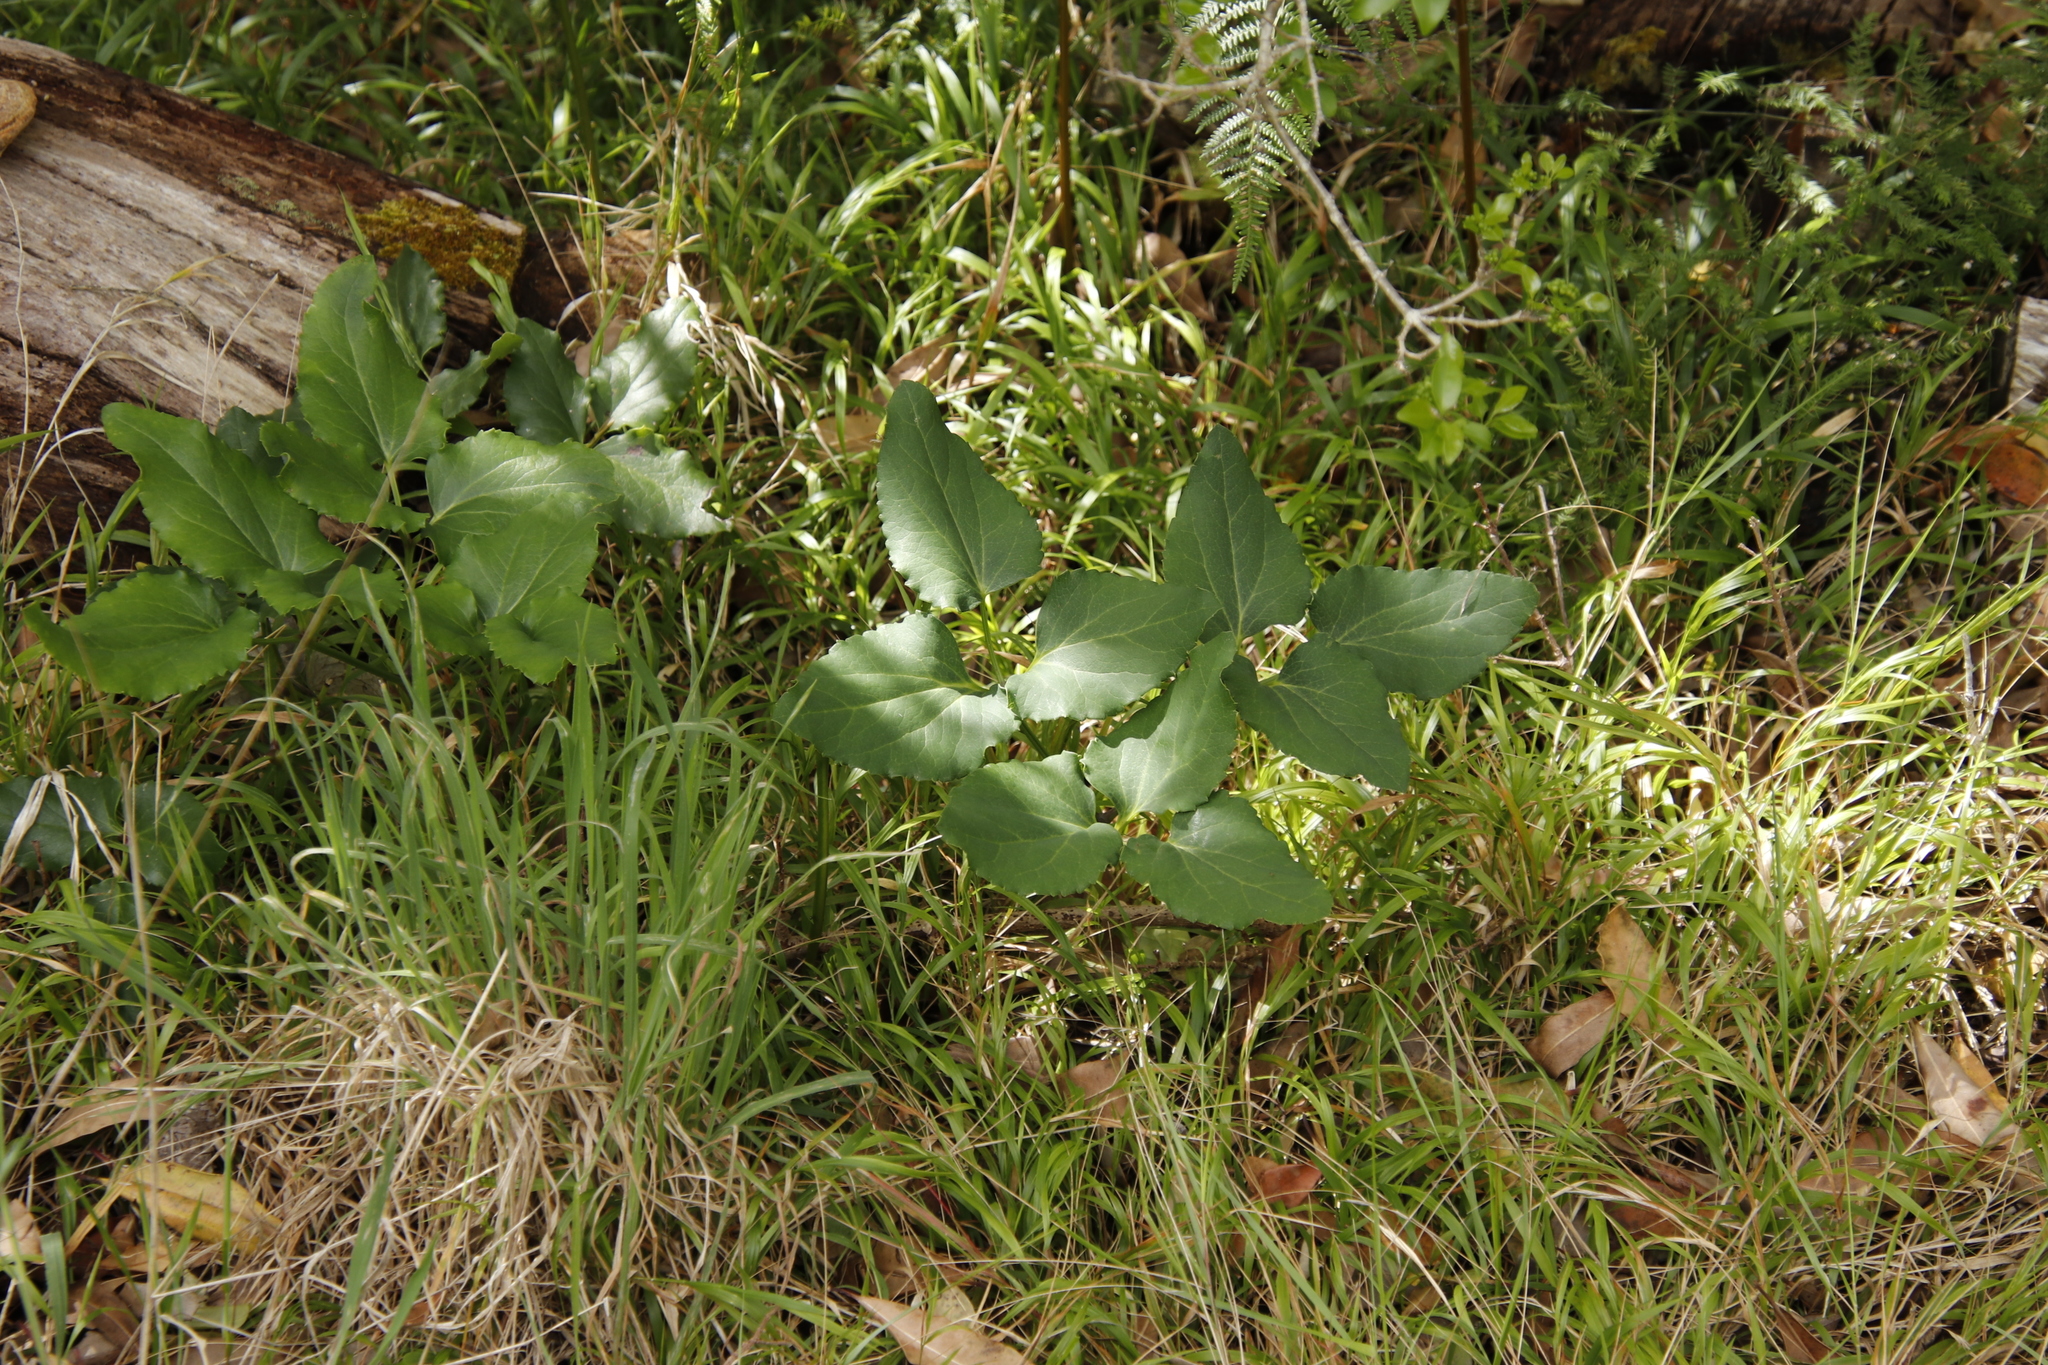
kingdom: Plantae
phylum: Tracheophyta
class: Magnoliopsida
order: Ranunculales
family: Ranunculaceae
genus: Knowltonia
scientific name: Knowltonia vesicatoria
